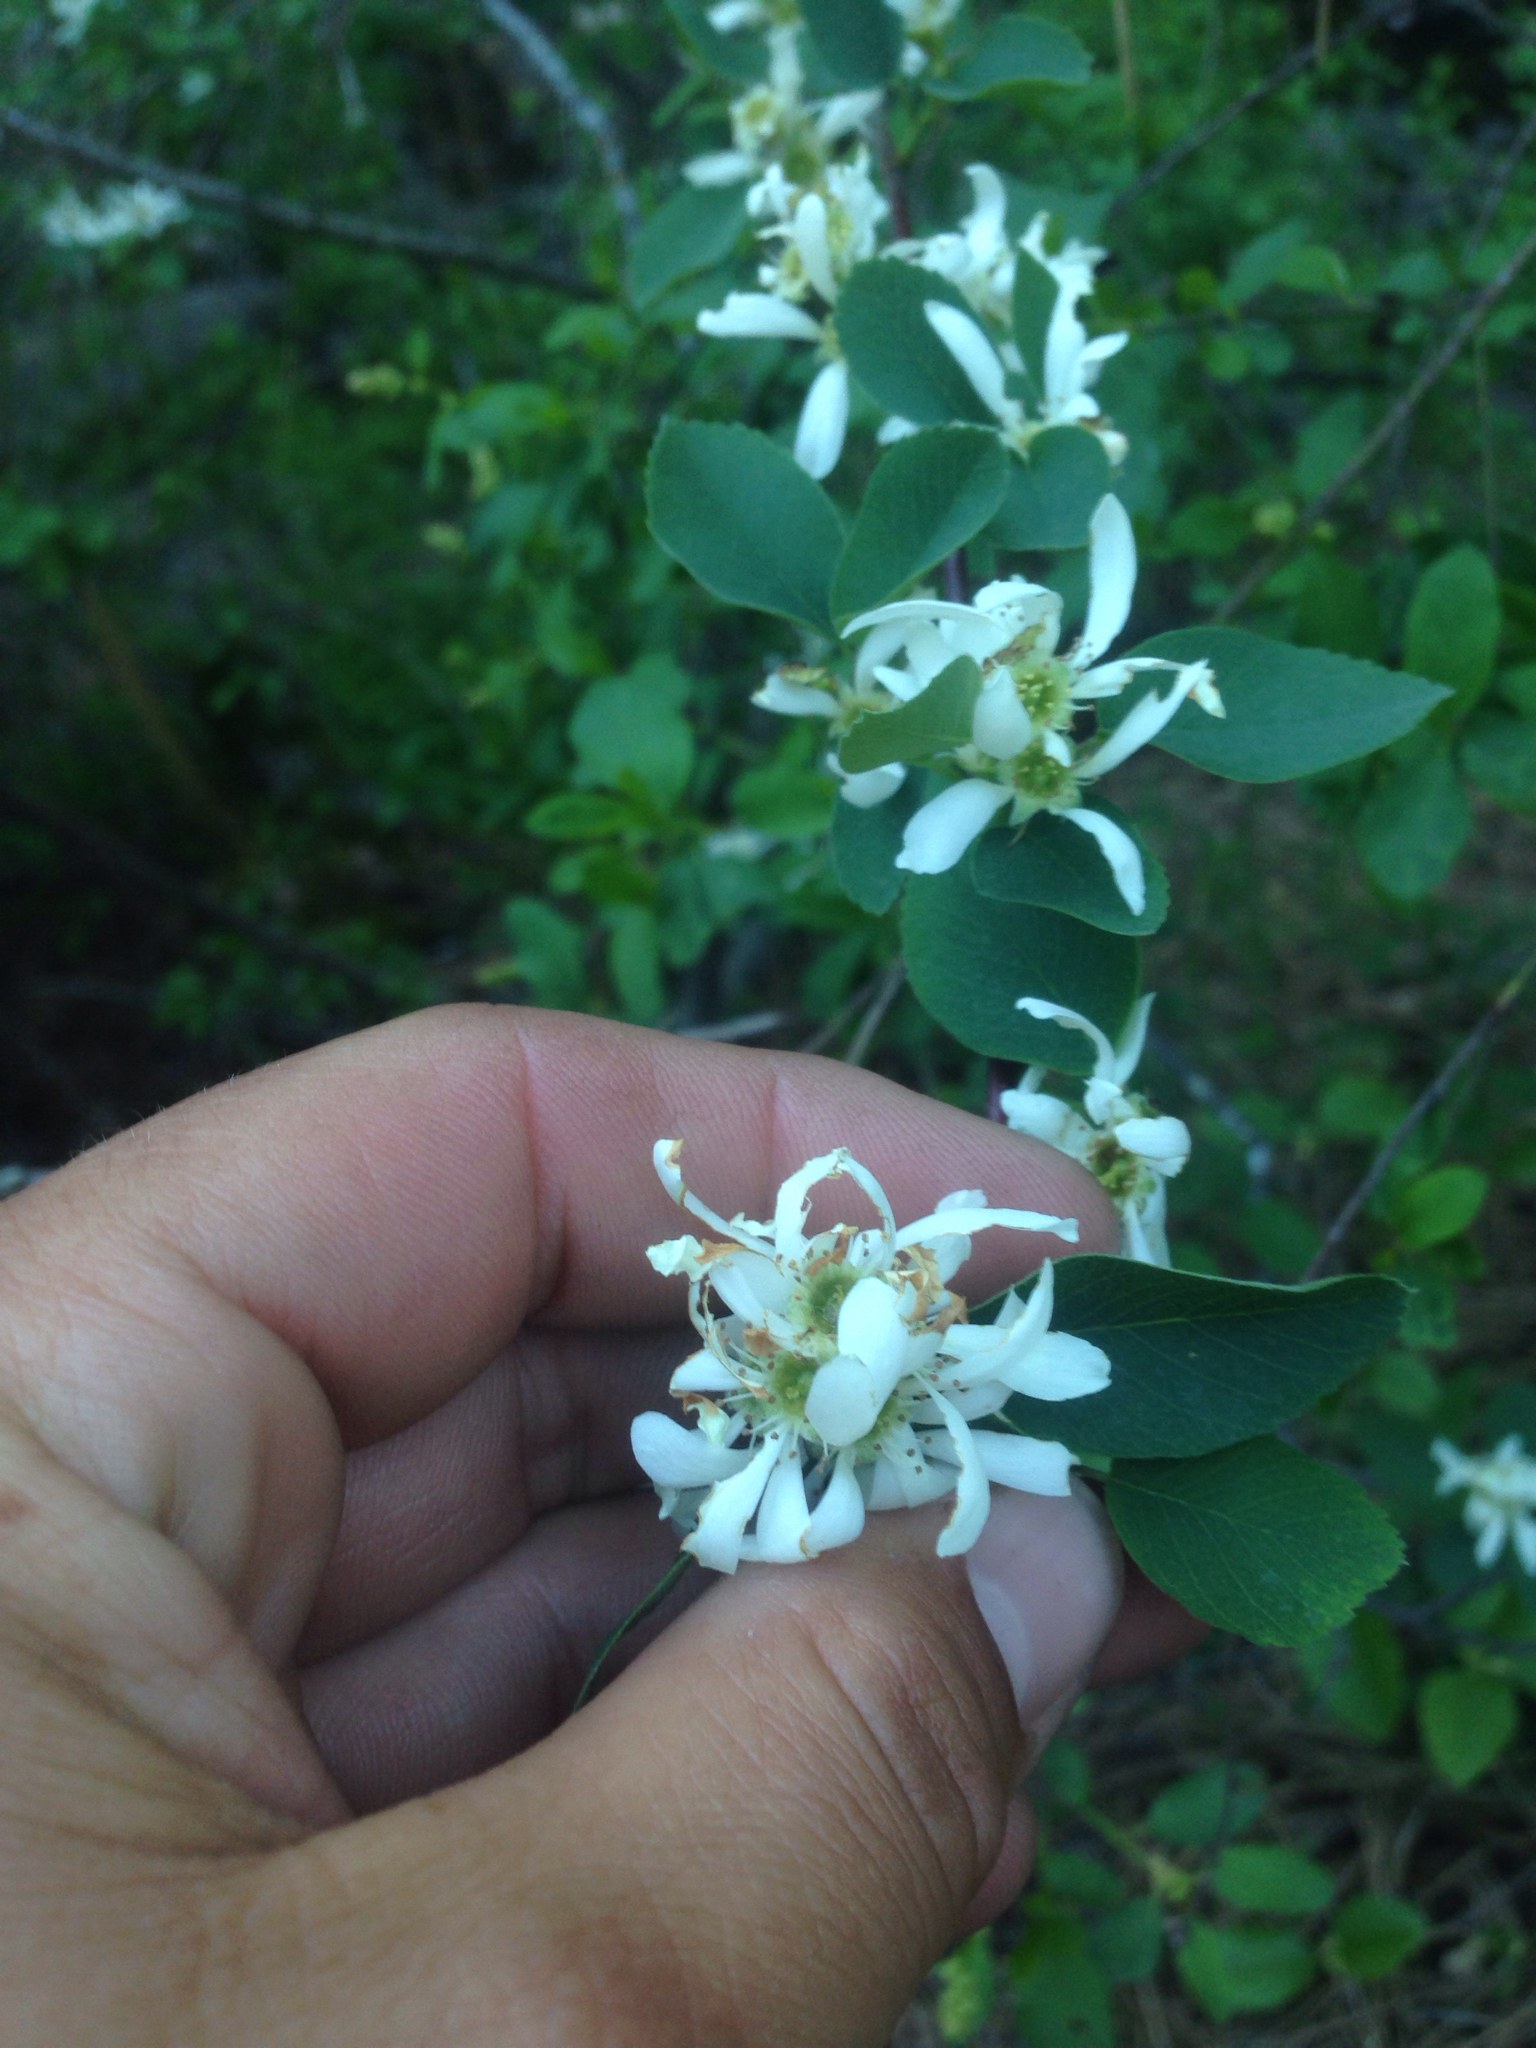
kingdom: Plantae
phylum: Tracheophyta
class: Magnoliopsida
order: Rosales
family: Rosaceae
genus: Amelanchier
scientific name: Amelanchier utahensis
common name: Utah serviceberry
